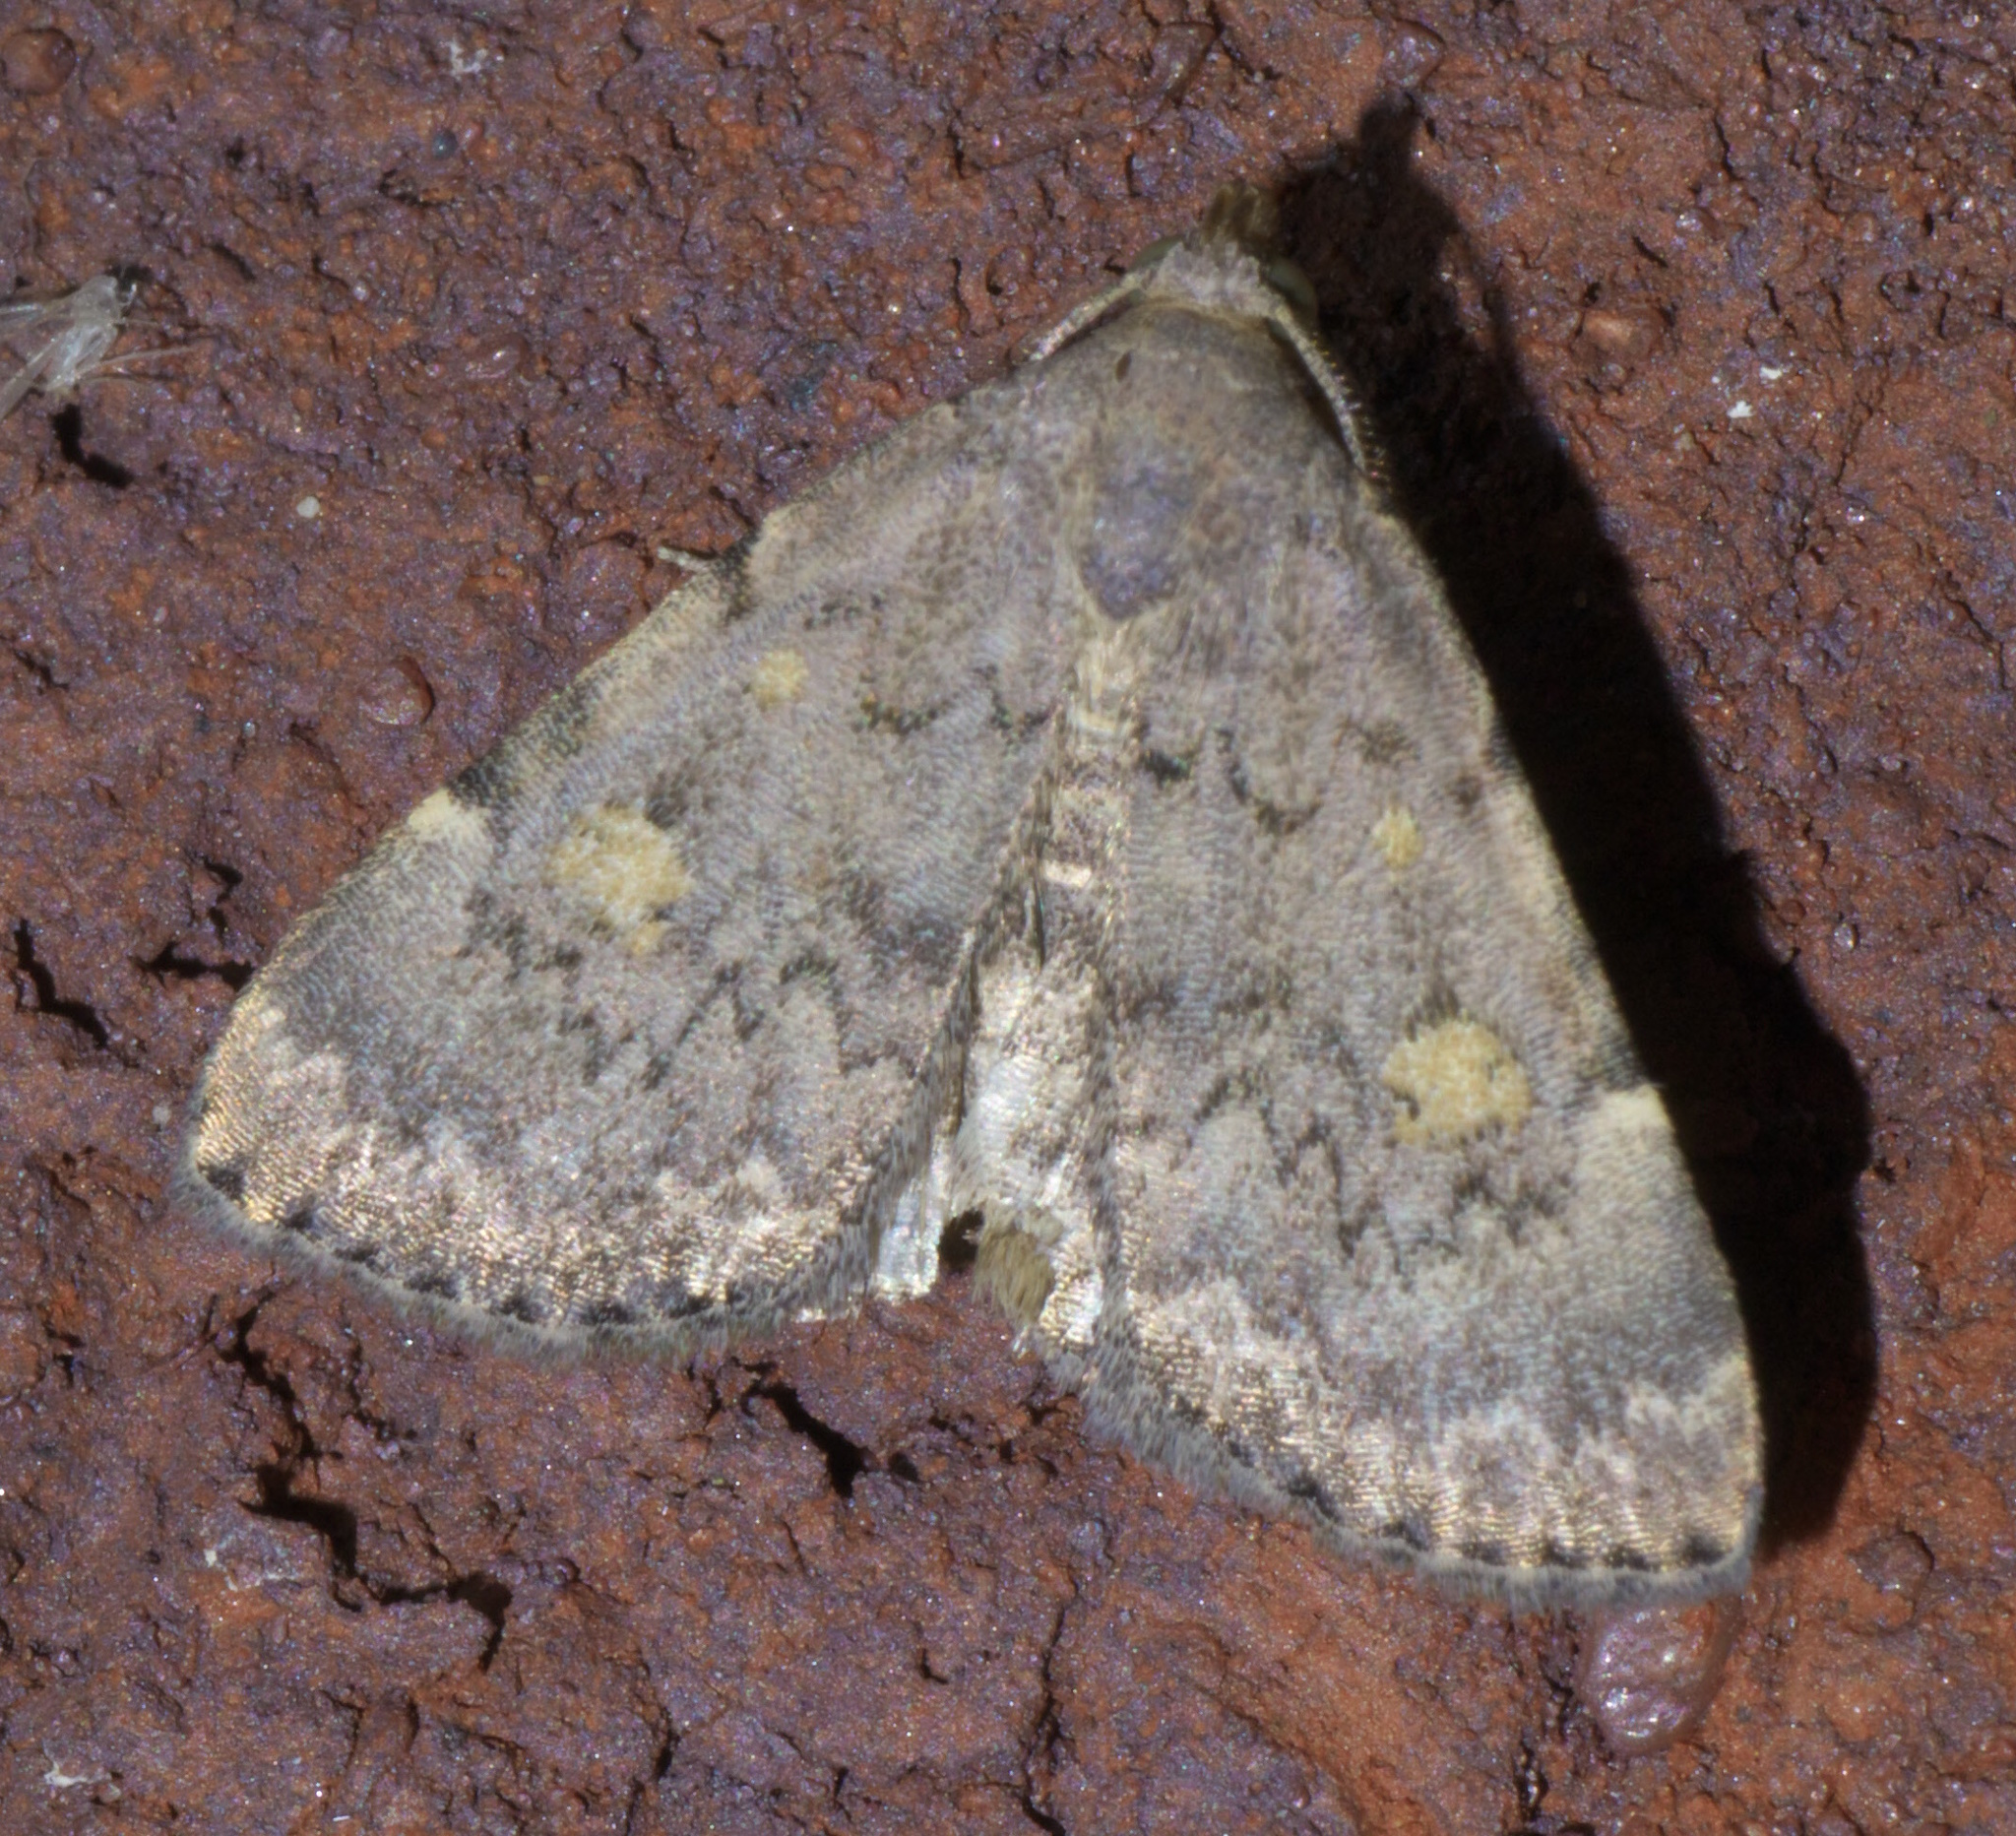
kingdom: Animalia
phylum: Arthropoda
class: Insecta
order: Lepidoptera
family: Erebidae
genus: Idia
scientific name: Idia aemula
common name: Common idia moth
